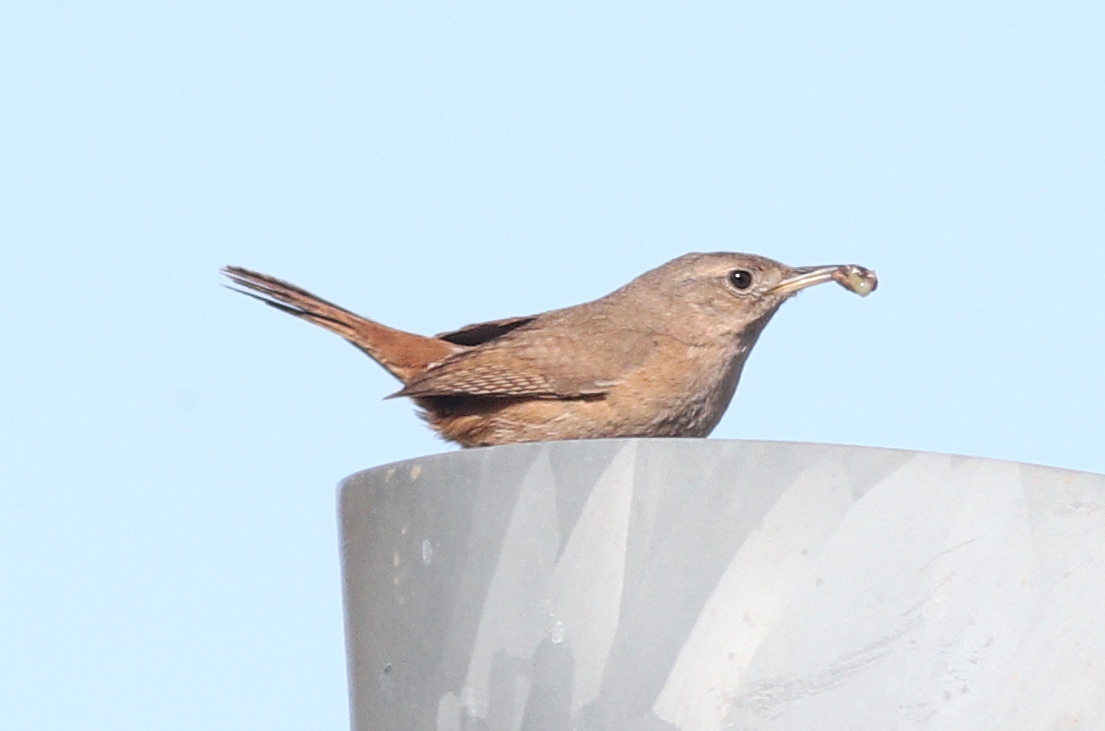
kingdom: Animalia
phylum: Chordata
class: Aves
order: Passeriformes
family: Troglodytidae
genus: Troglodytes
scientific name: Troglodytes aedon
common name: House wren
